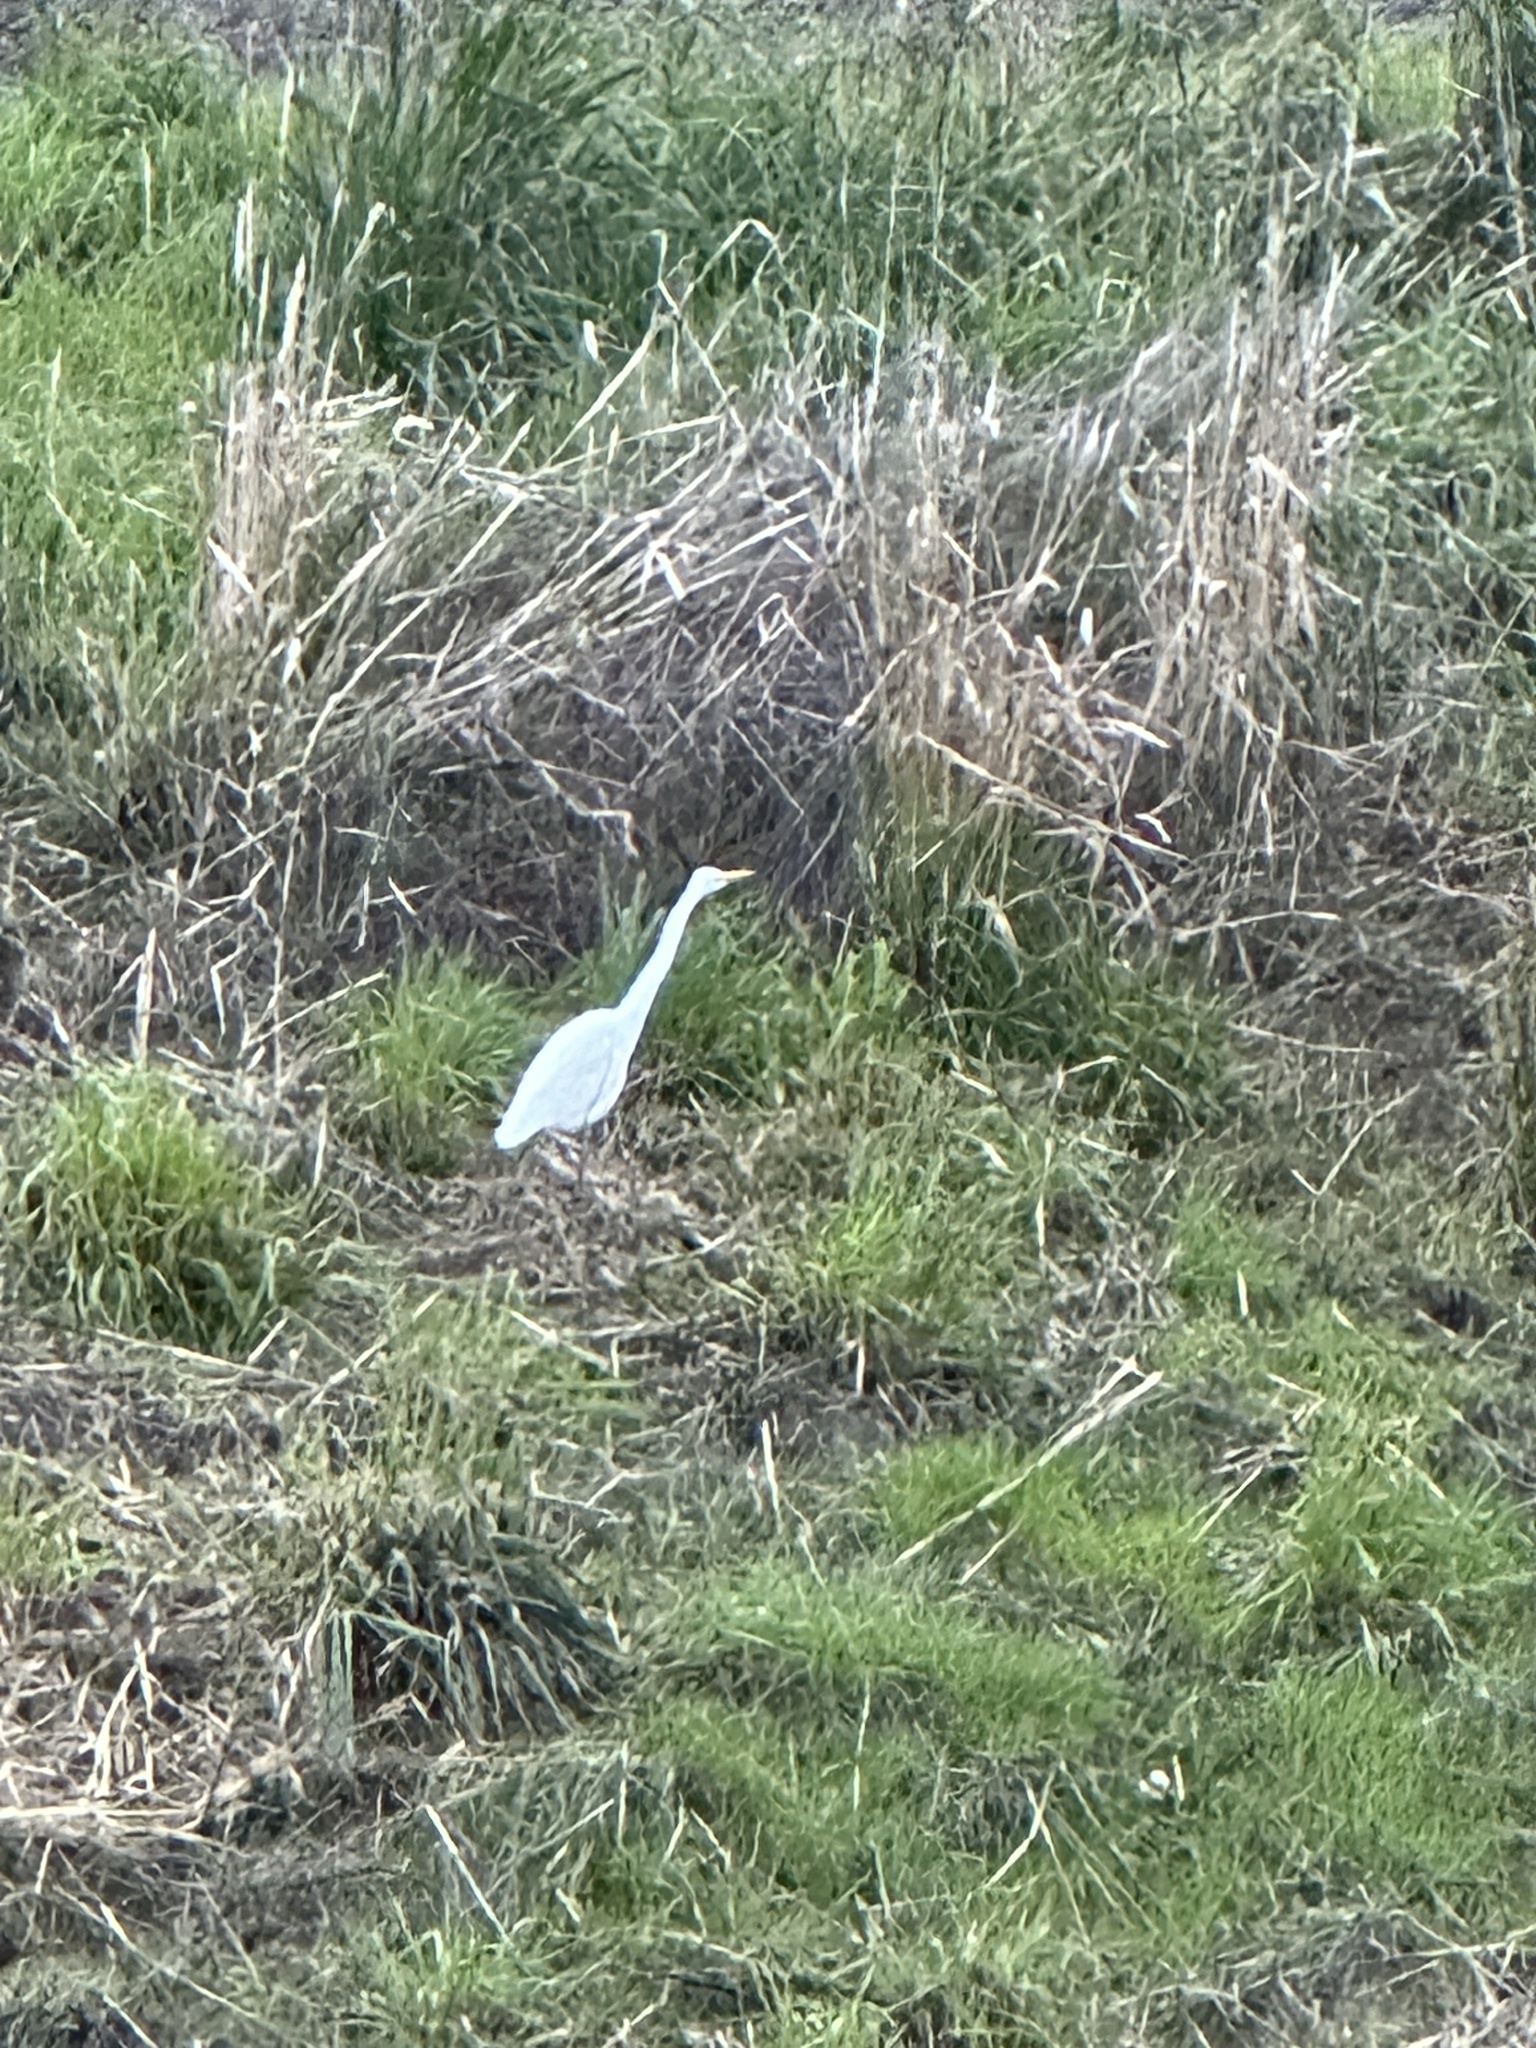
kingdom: Animalia
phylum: Chordata
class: Aves
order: Pelecaniformes
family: Ardeidae
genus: Ardea
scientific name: Ardea alba
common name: Great egret
